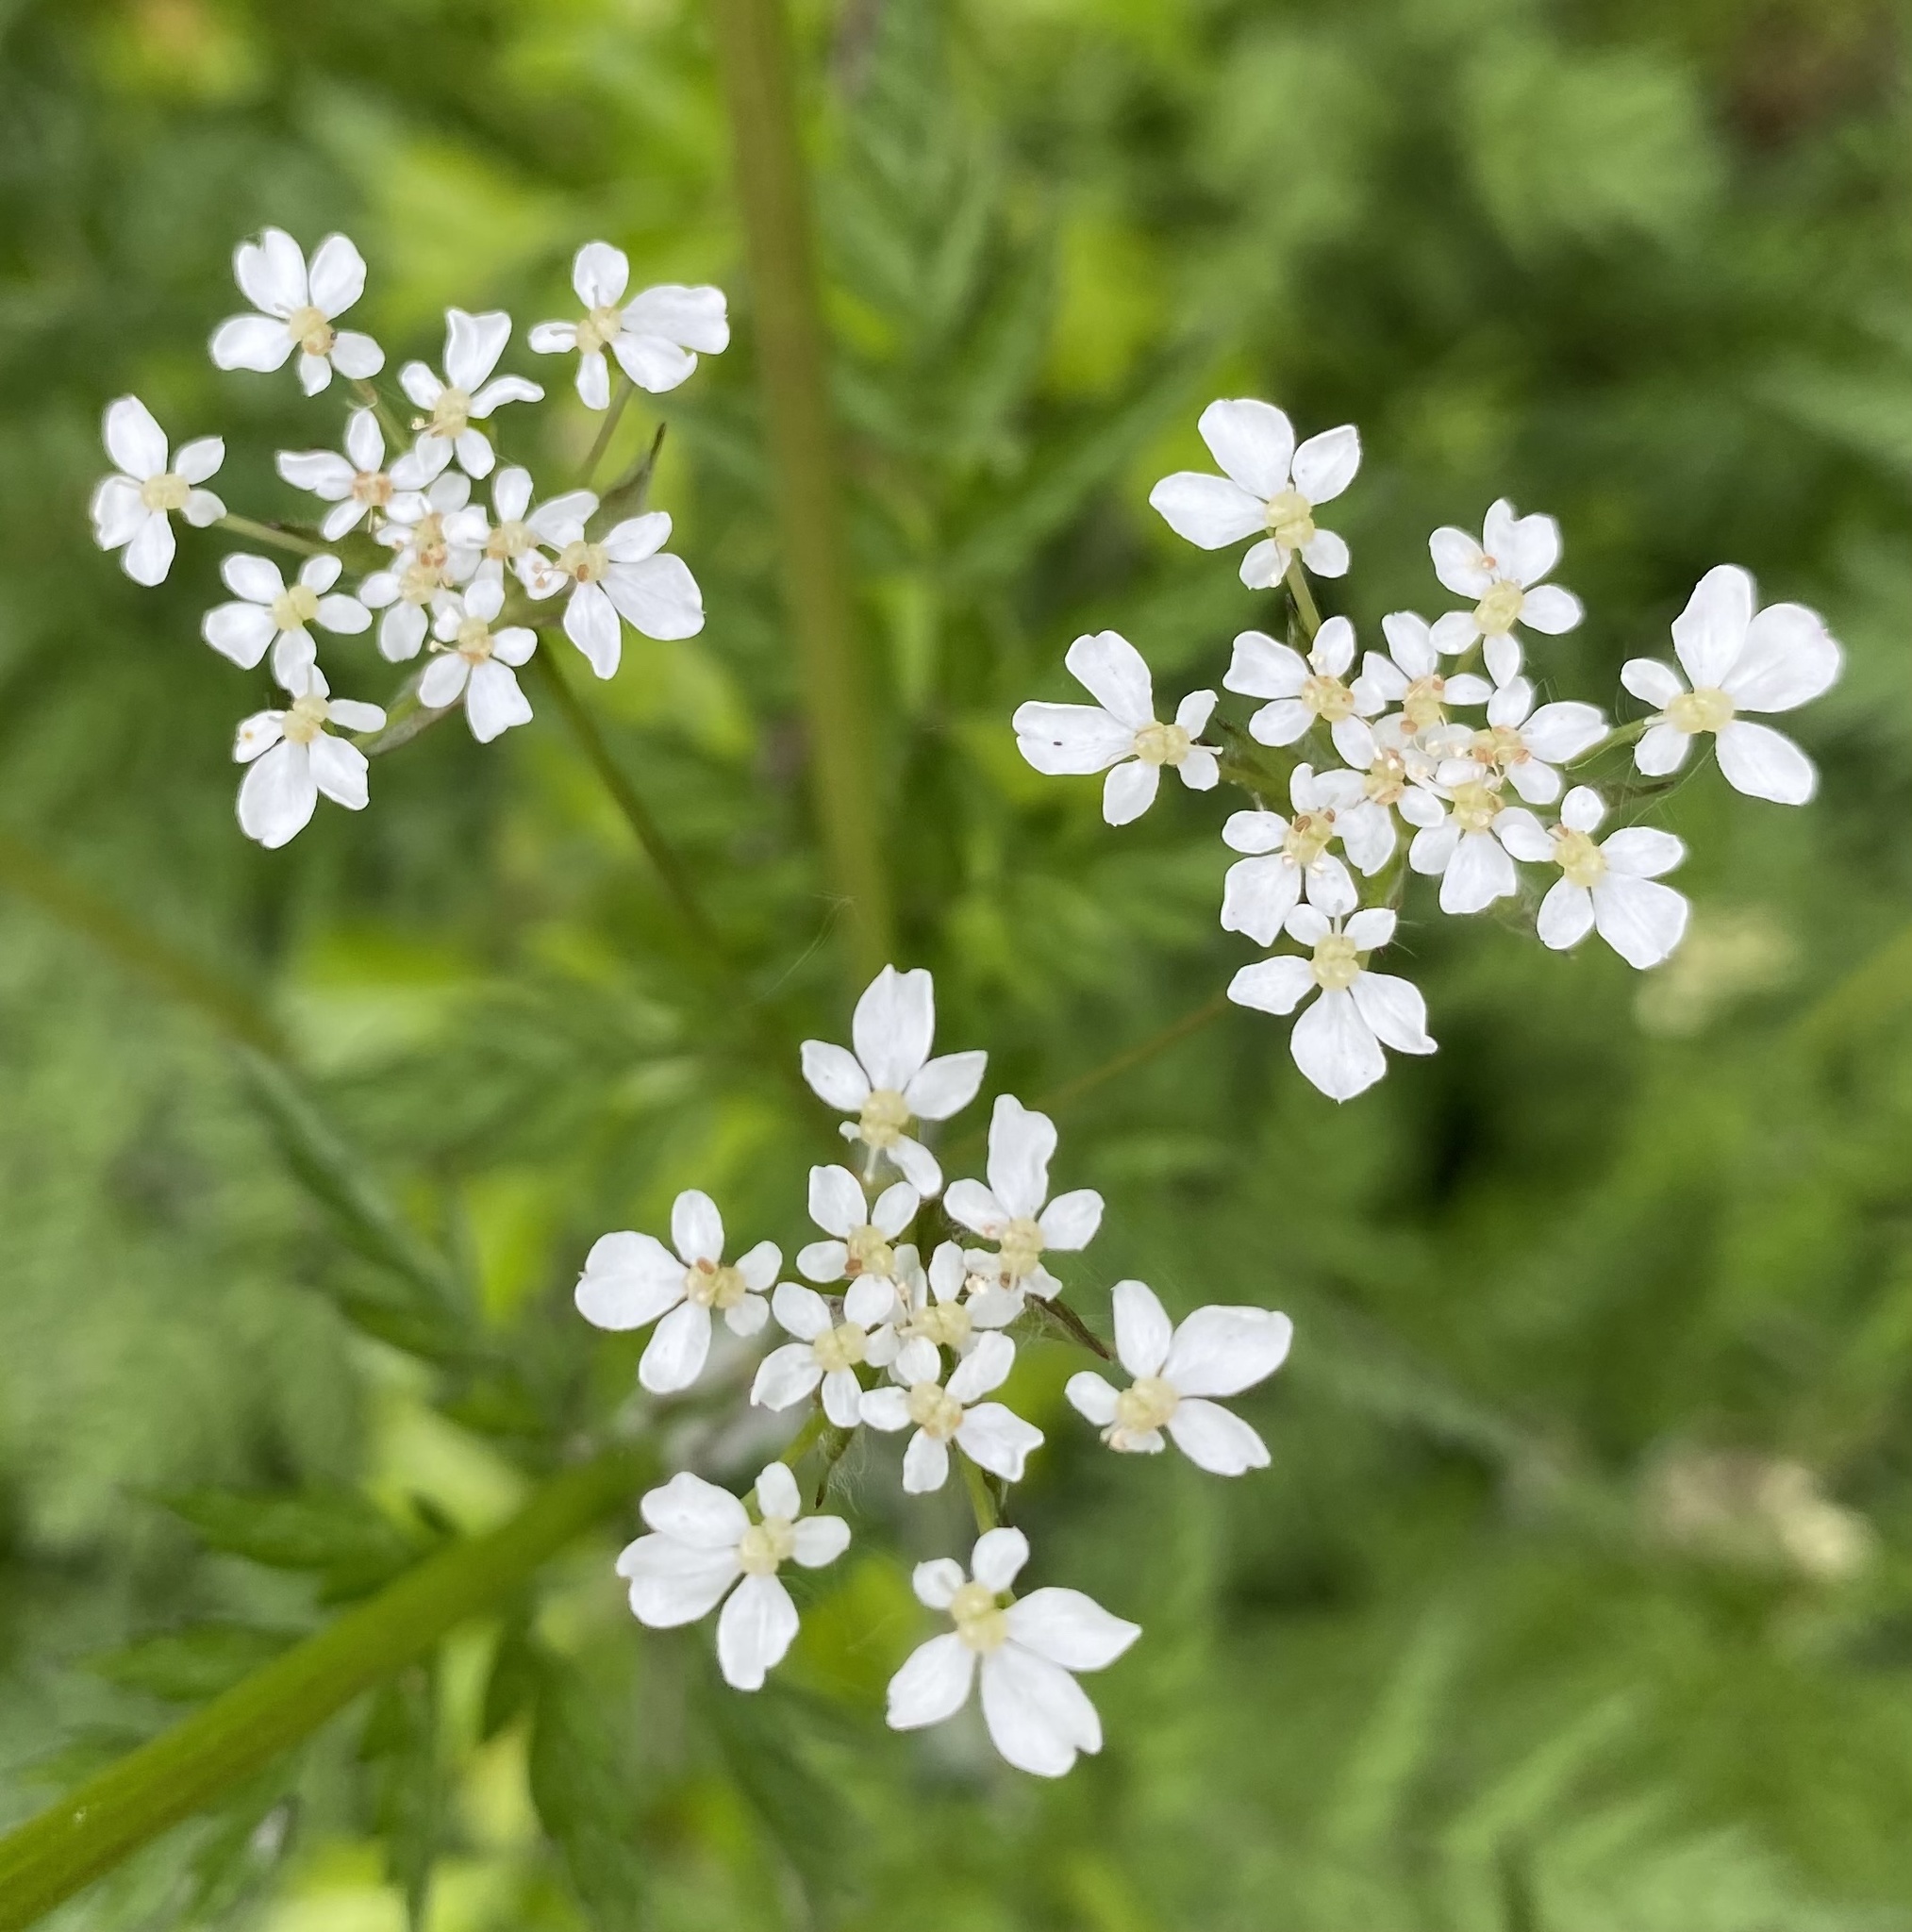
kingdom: Plantae
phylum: Tracheophyta
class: Magnoliopsida
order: Apiales
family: Apiaceae
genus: Anthriscus
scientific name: Anthriscus sylvestris
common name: Cow parsley
